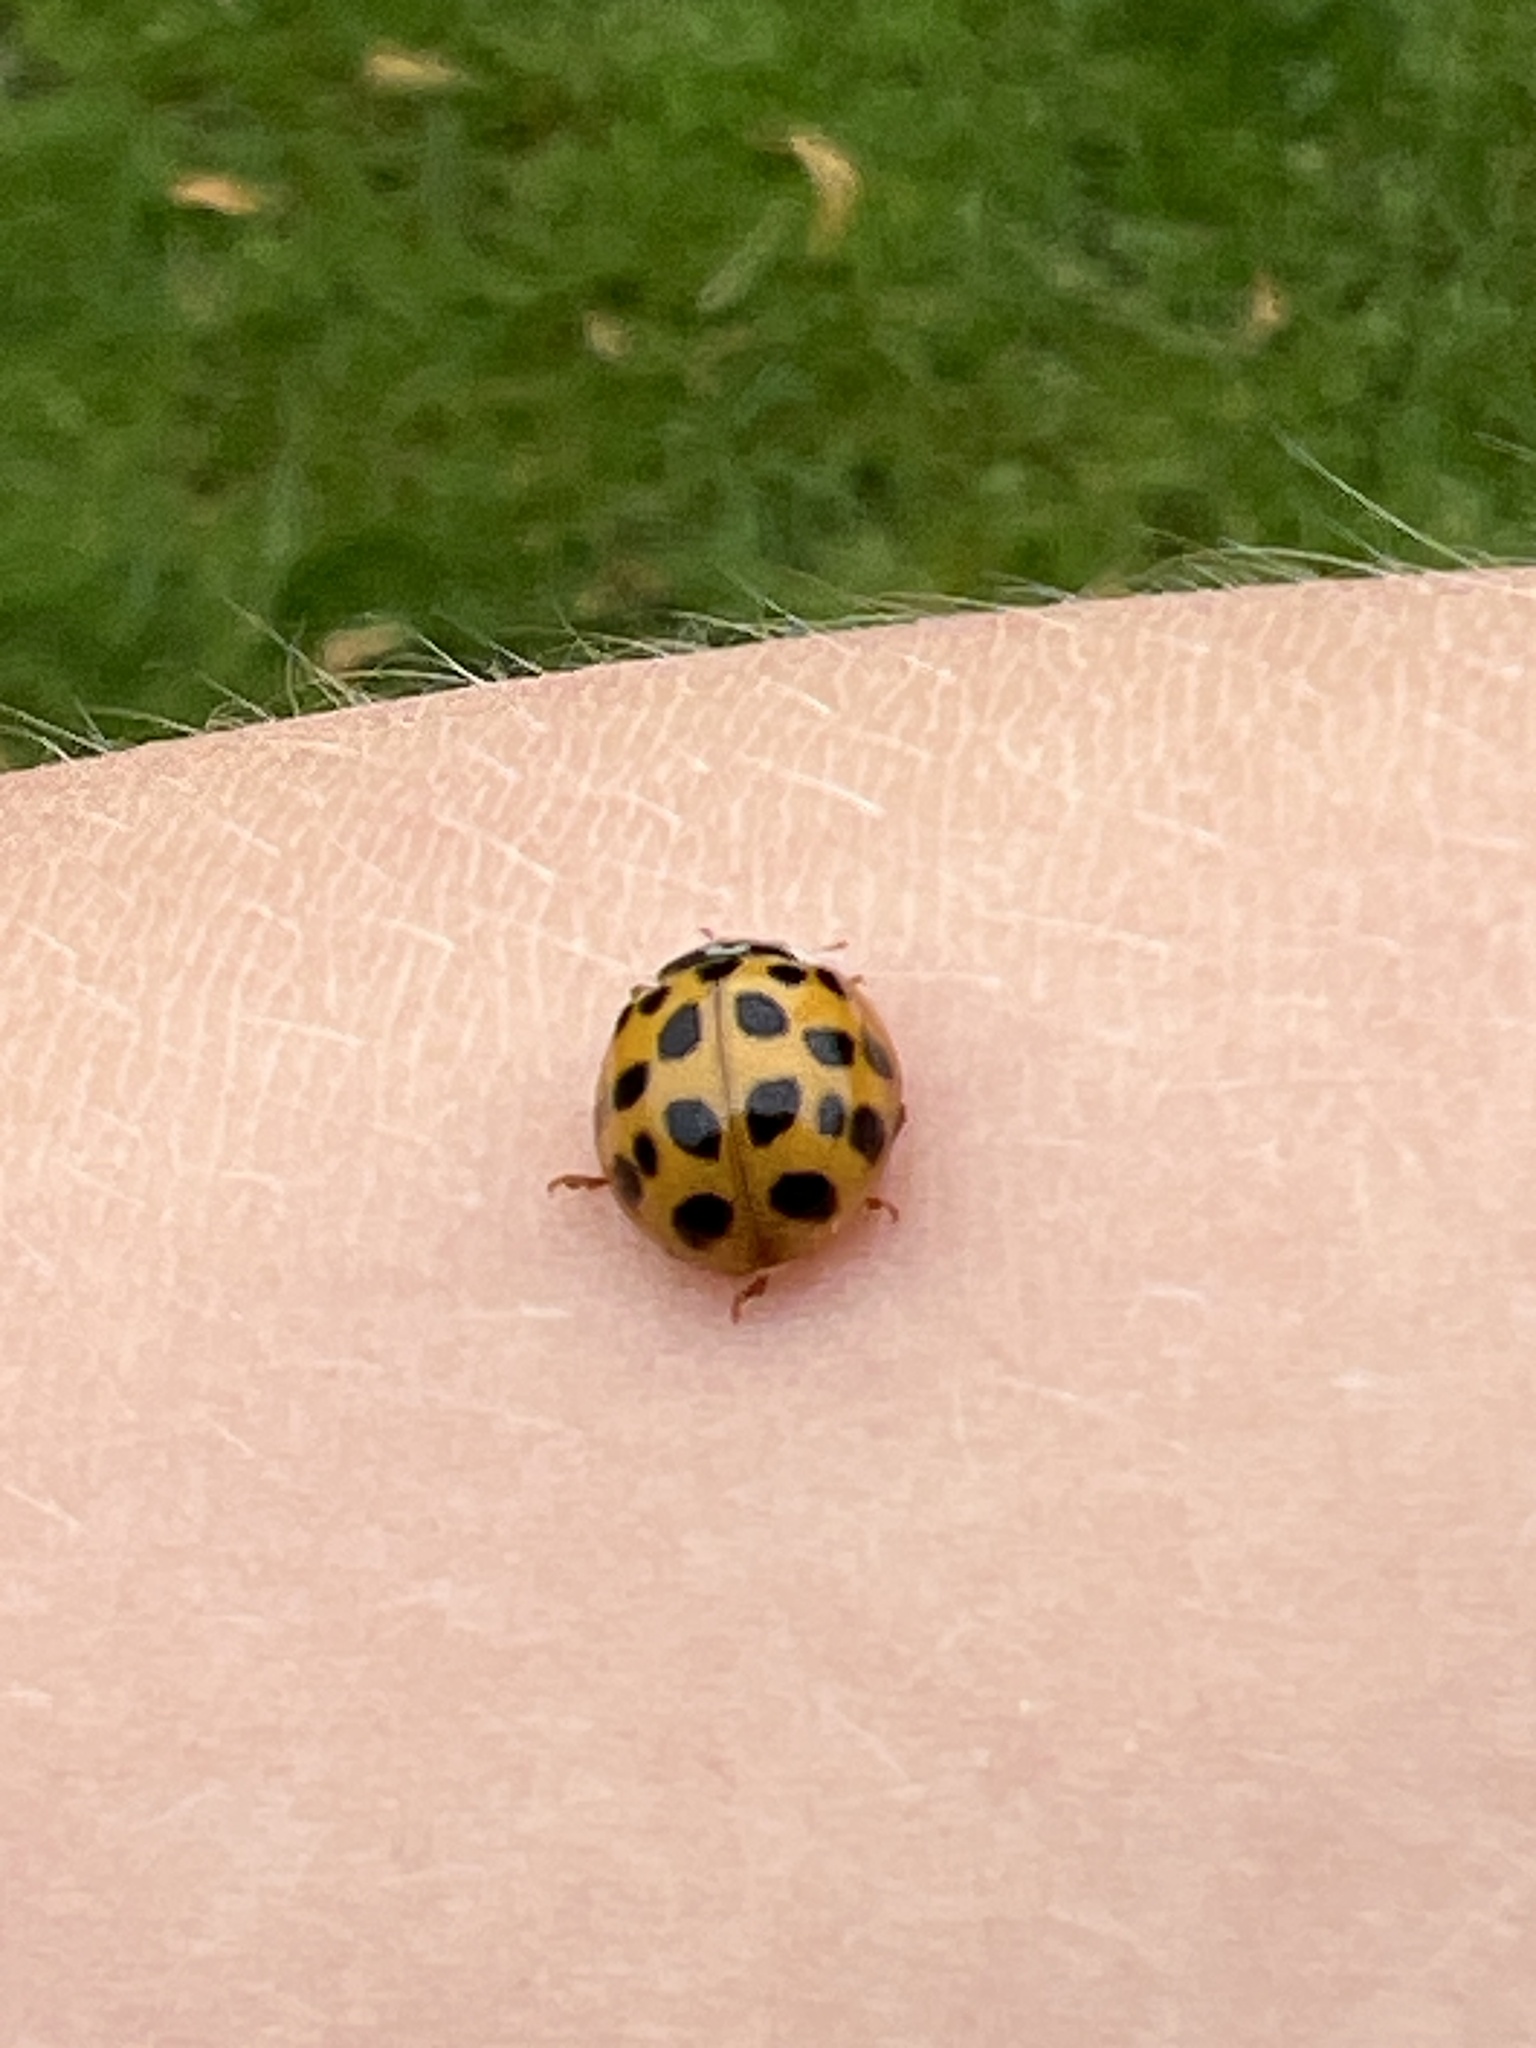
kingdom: Animalia
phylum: Arthropoda
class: Insecta
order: Coleoptera
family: Coccinellidae
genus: Harmonia
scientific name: Harmonia axyridis
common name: Harlequin ladybird
